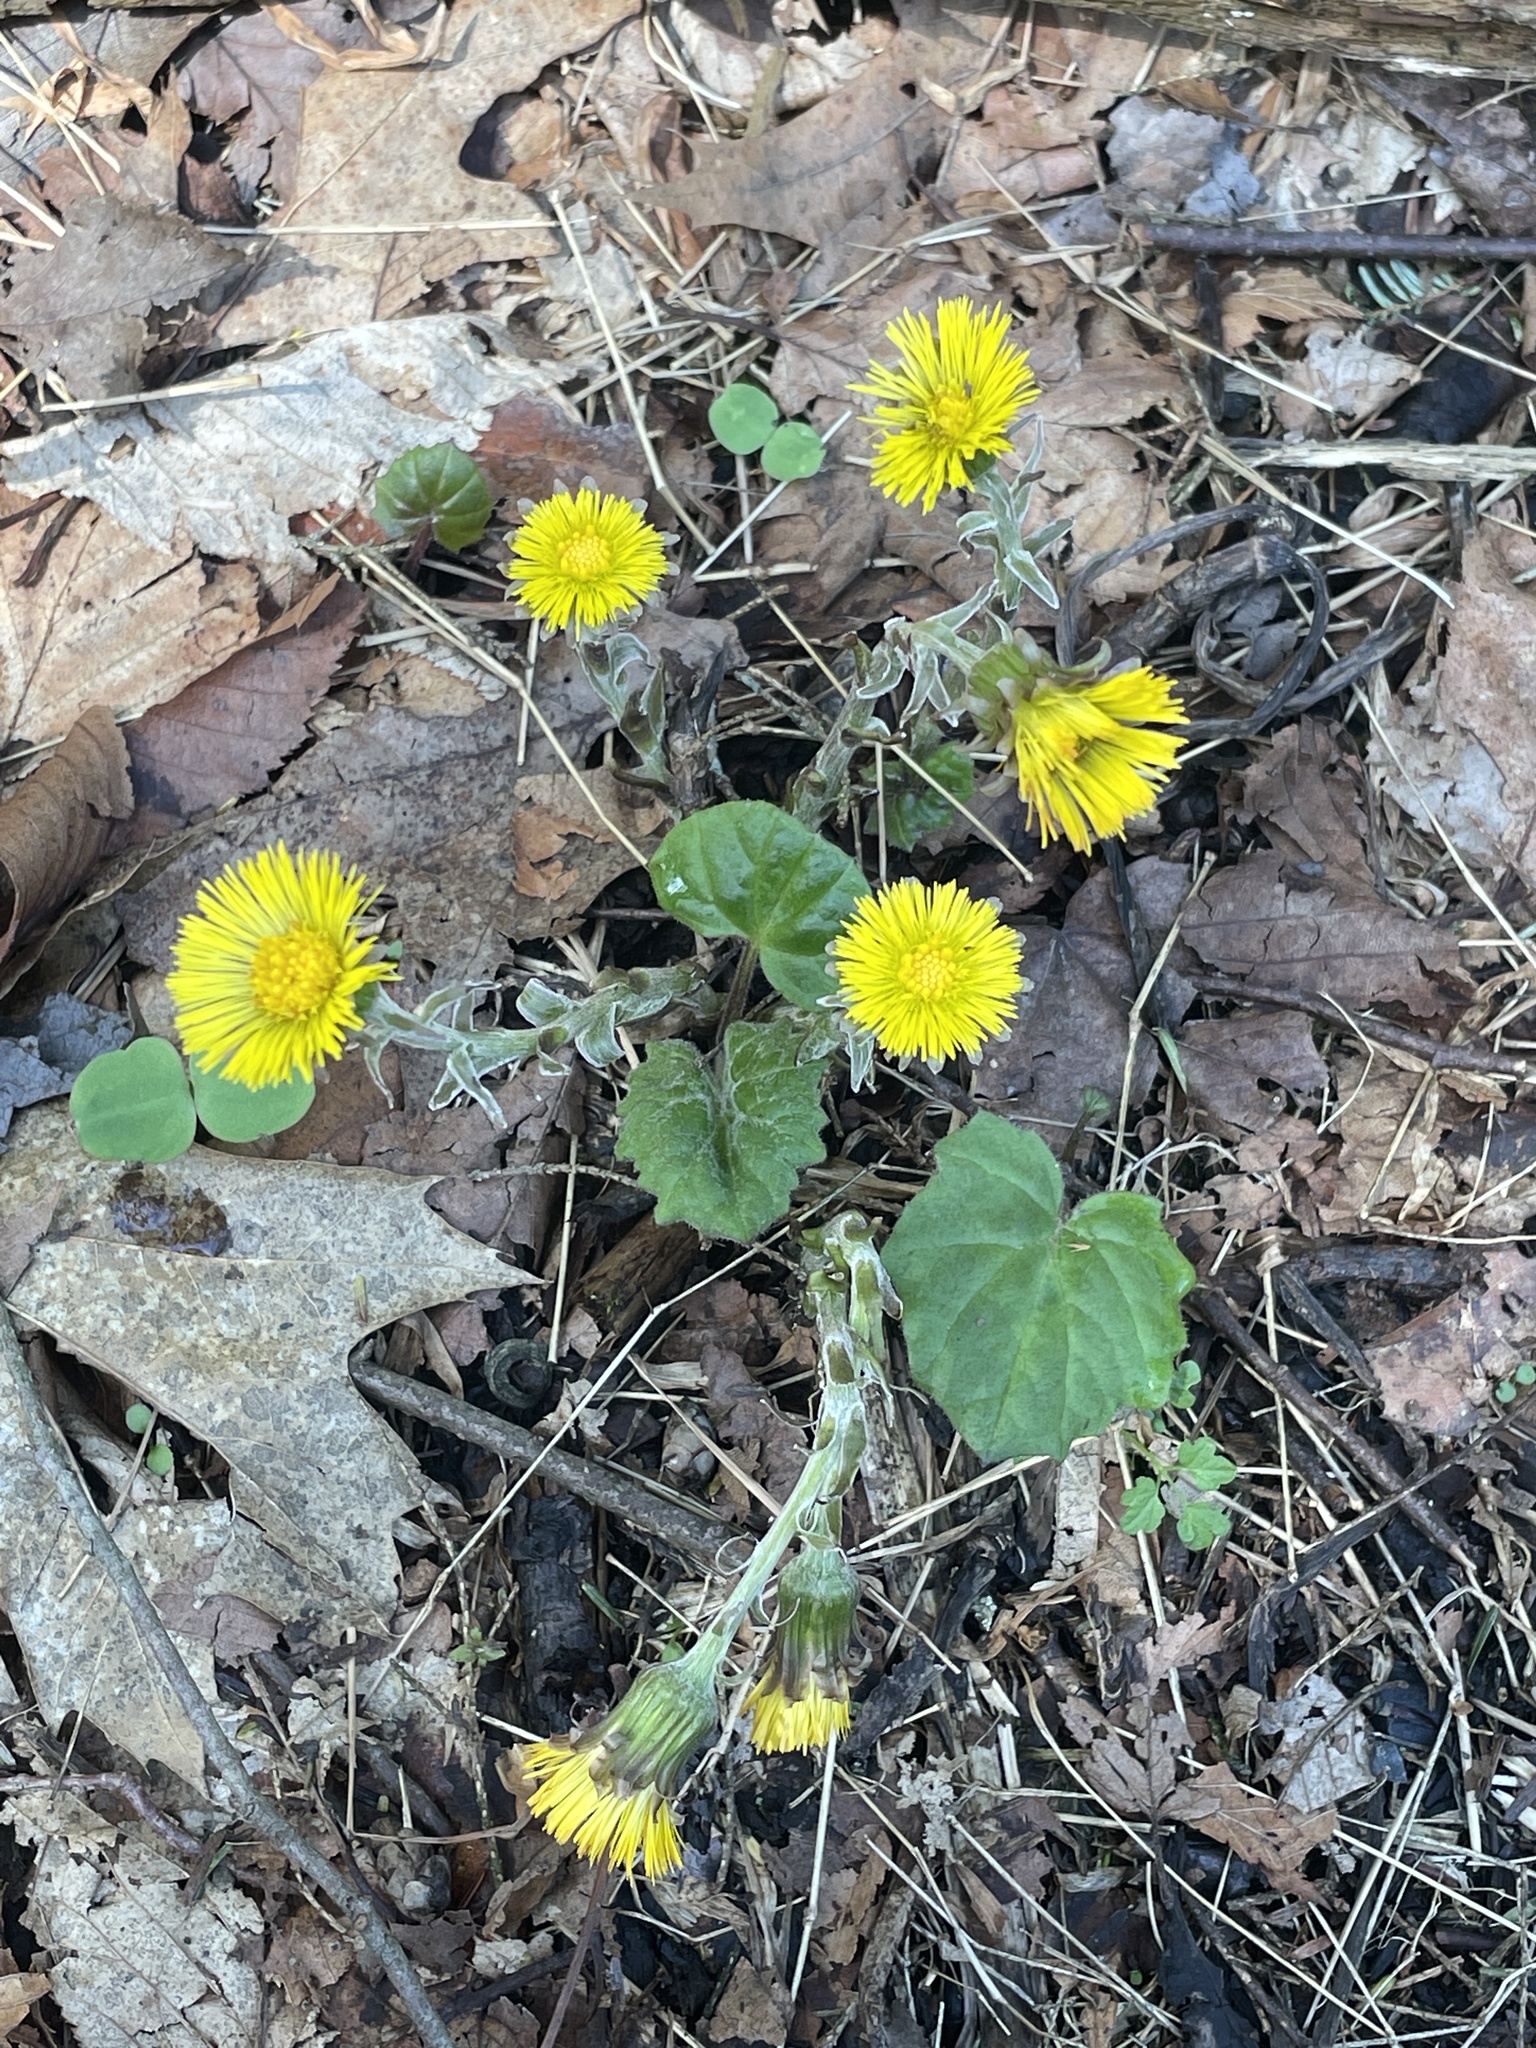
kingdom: Plantae
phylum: Tracheophyta
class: Magnoliopsida
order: Asterales
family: Asteraceae
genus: Tussilago
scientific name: Tussilago farfara
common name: Coltsfoot
